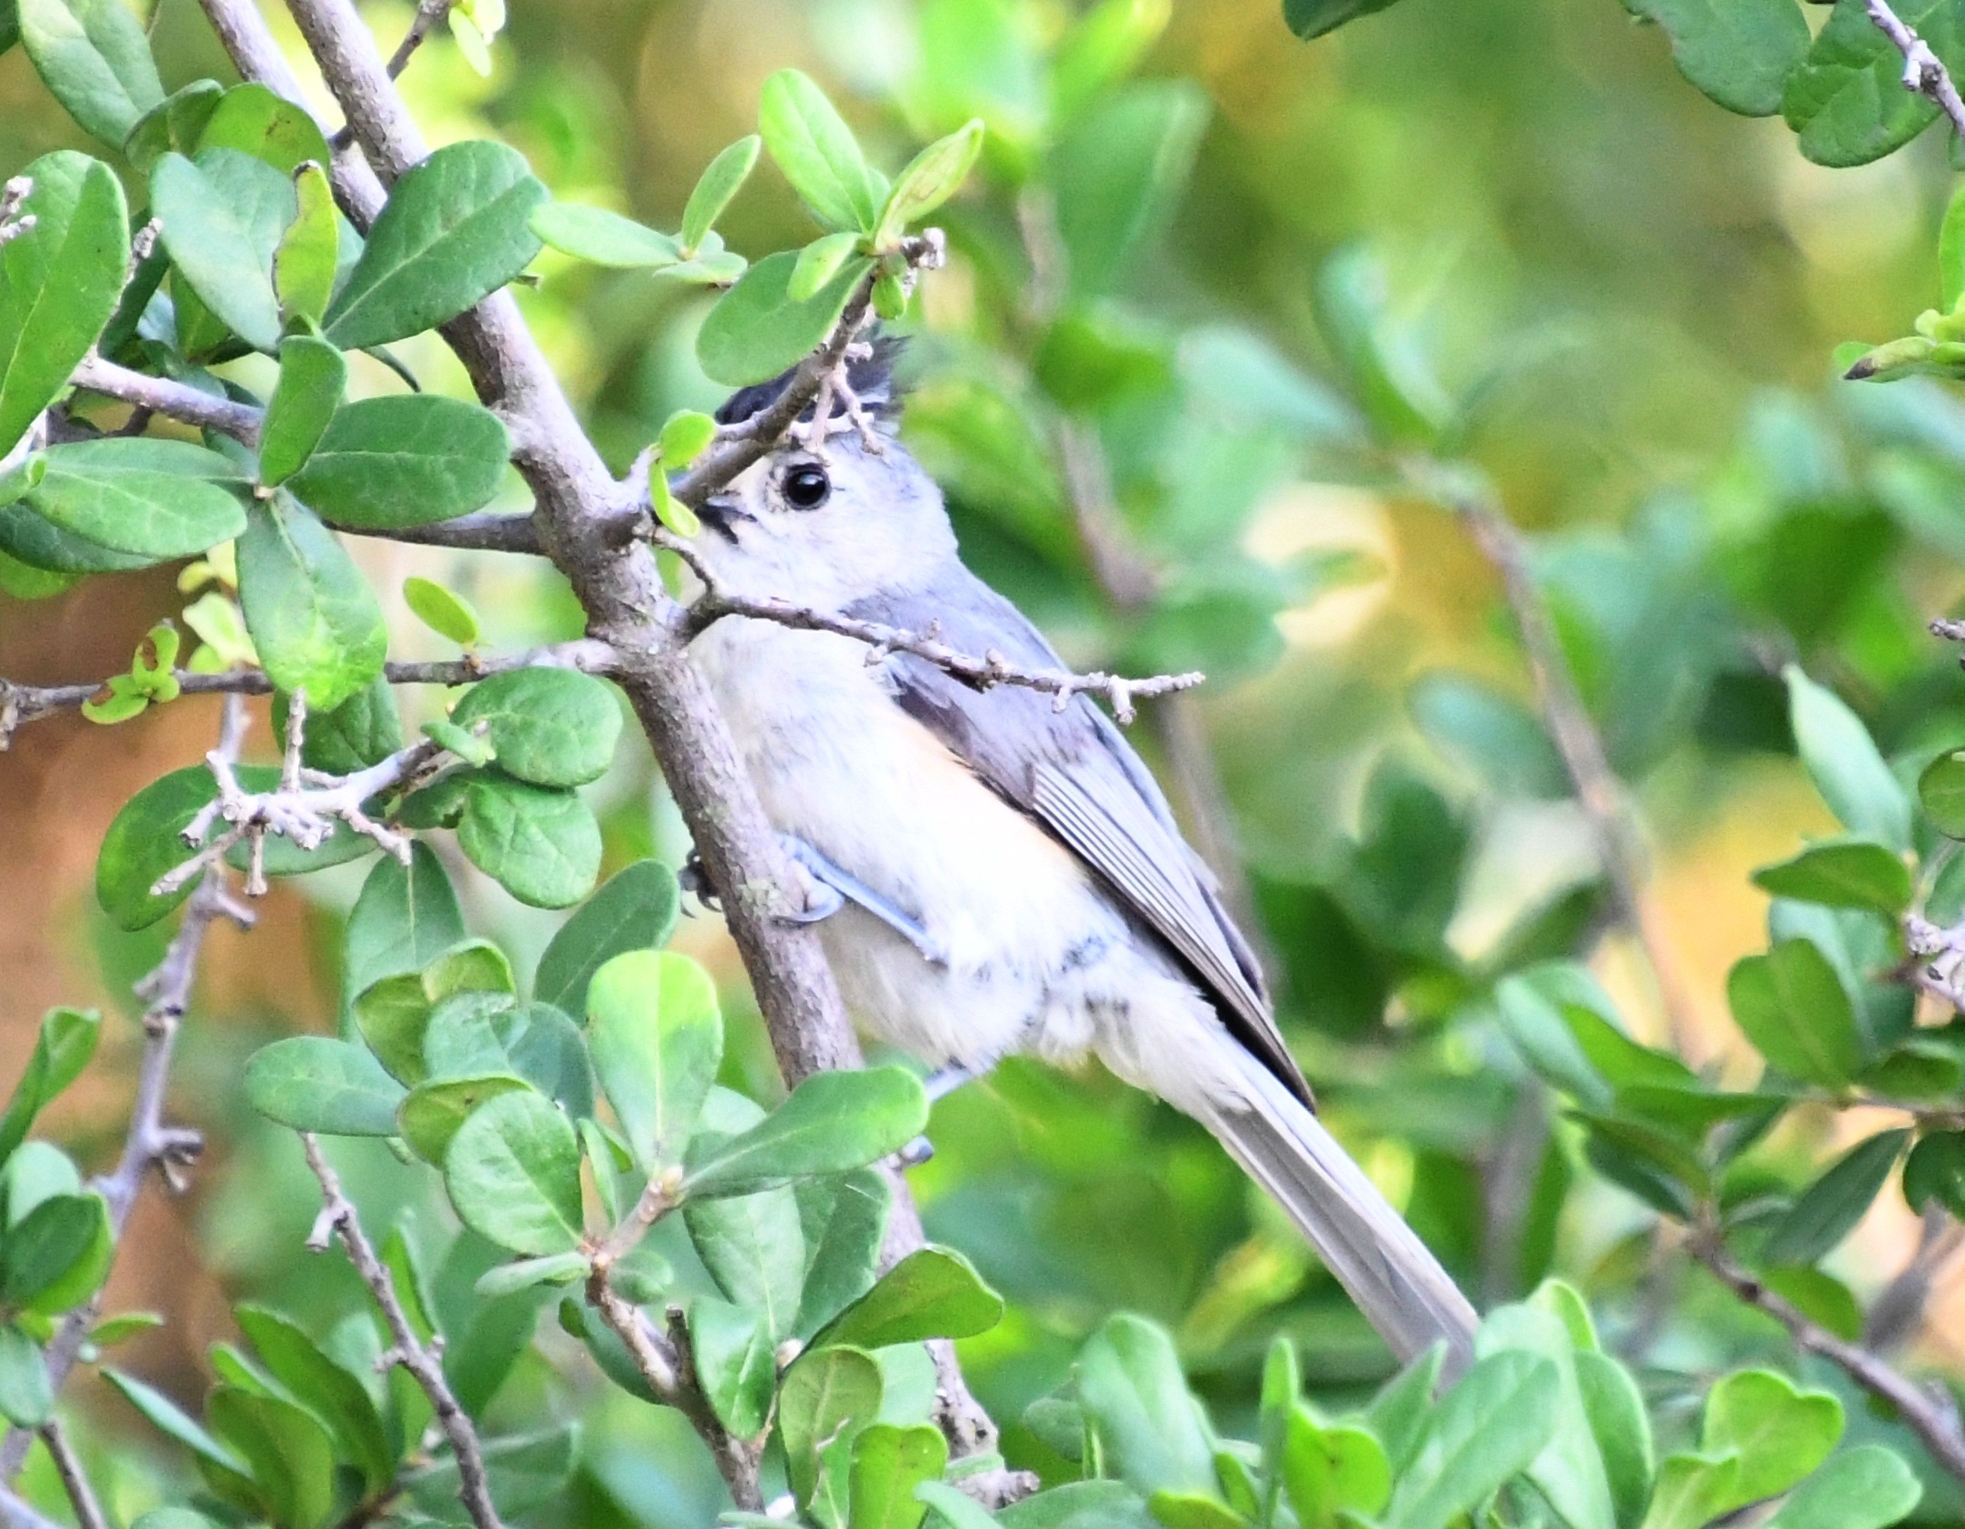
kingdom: Animalia
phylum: Chordata
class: Aves
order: Passeriformes
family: Paridae
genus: Baeolophus
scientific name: Baeolophus atricristatus
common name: Black-crested titmouse
